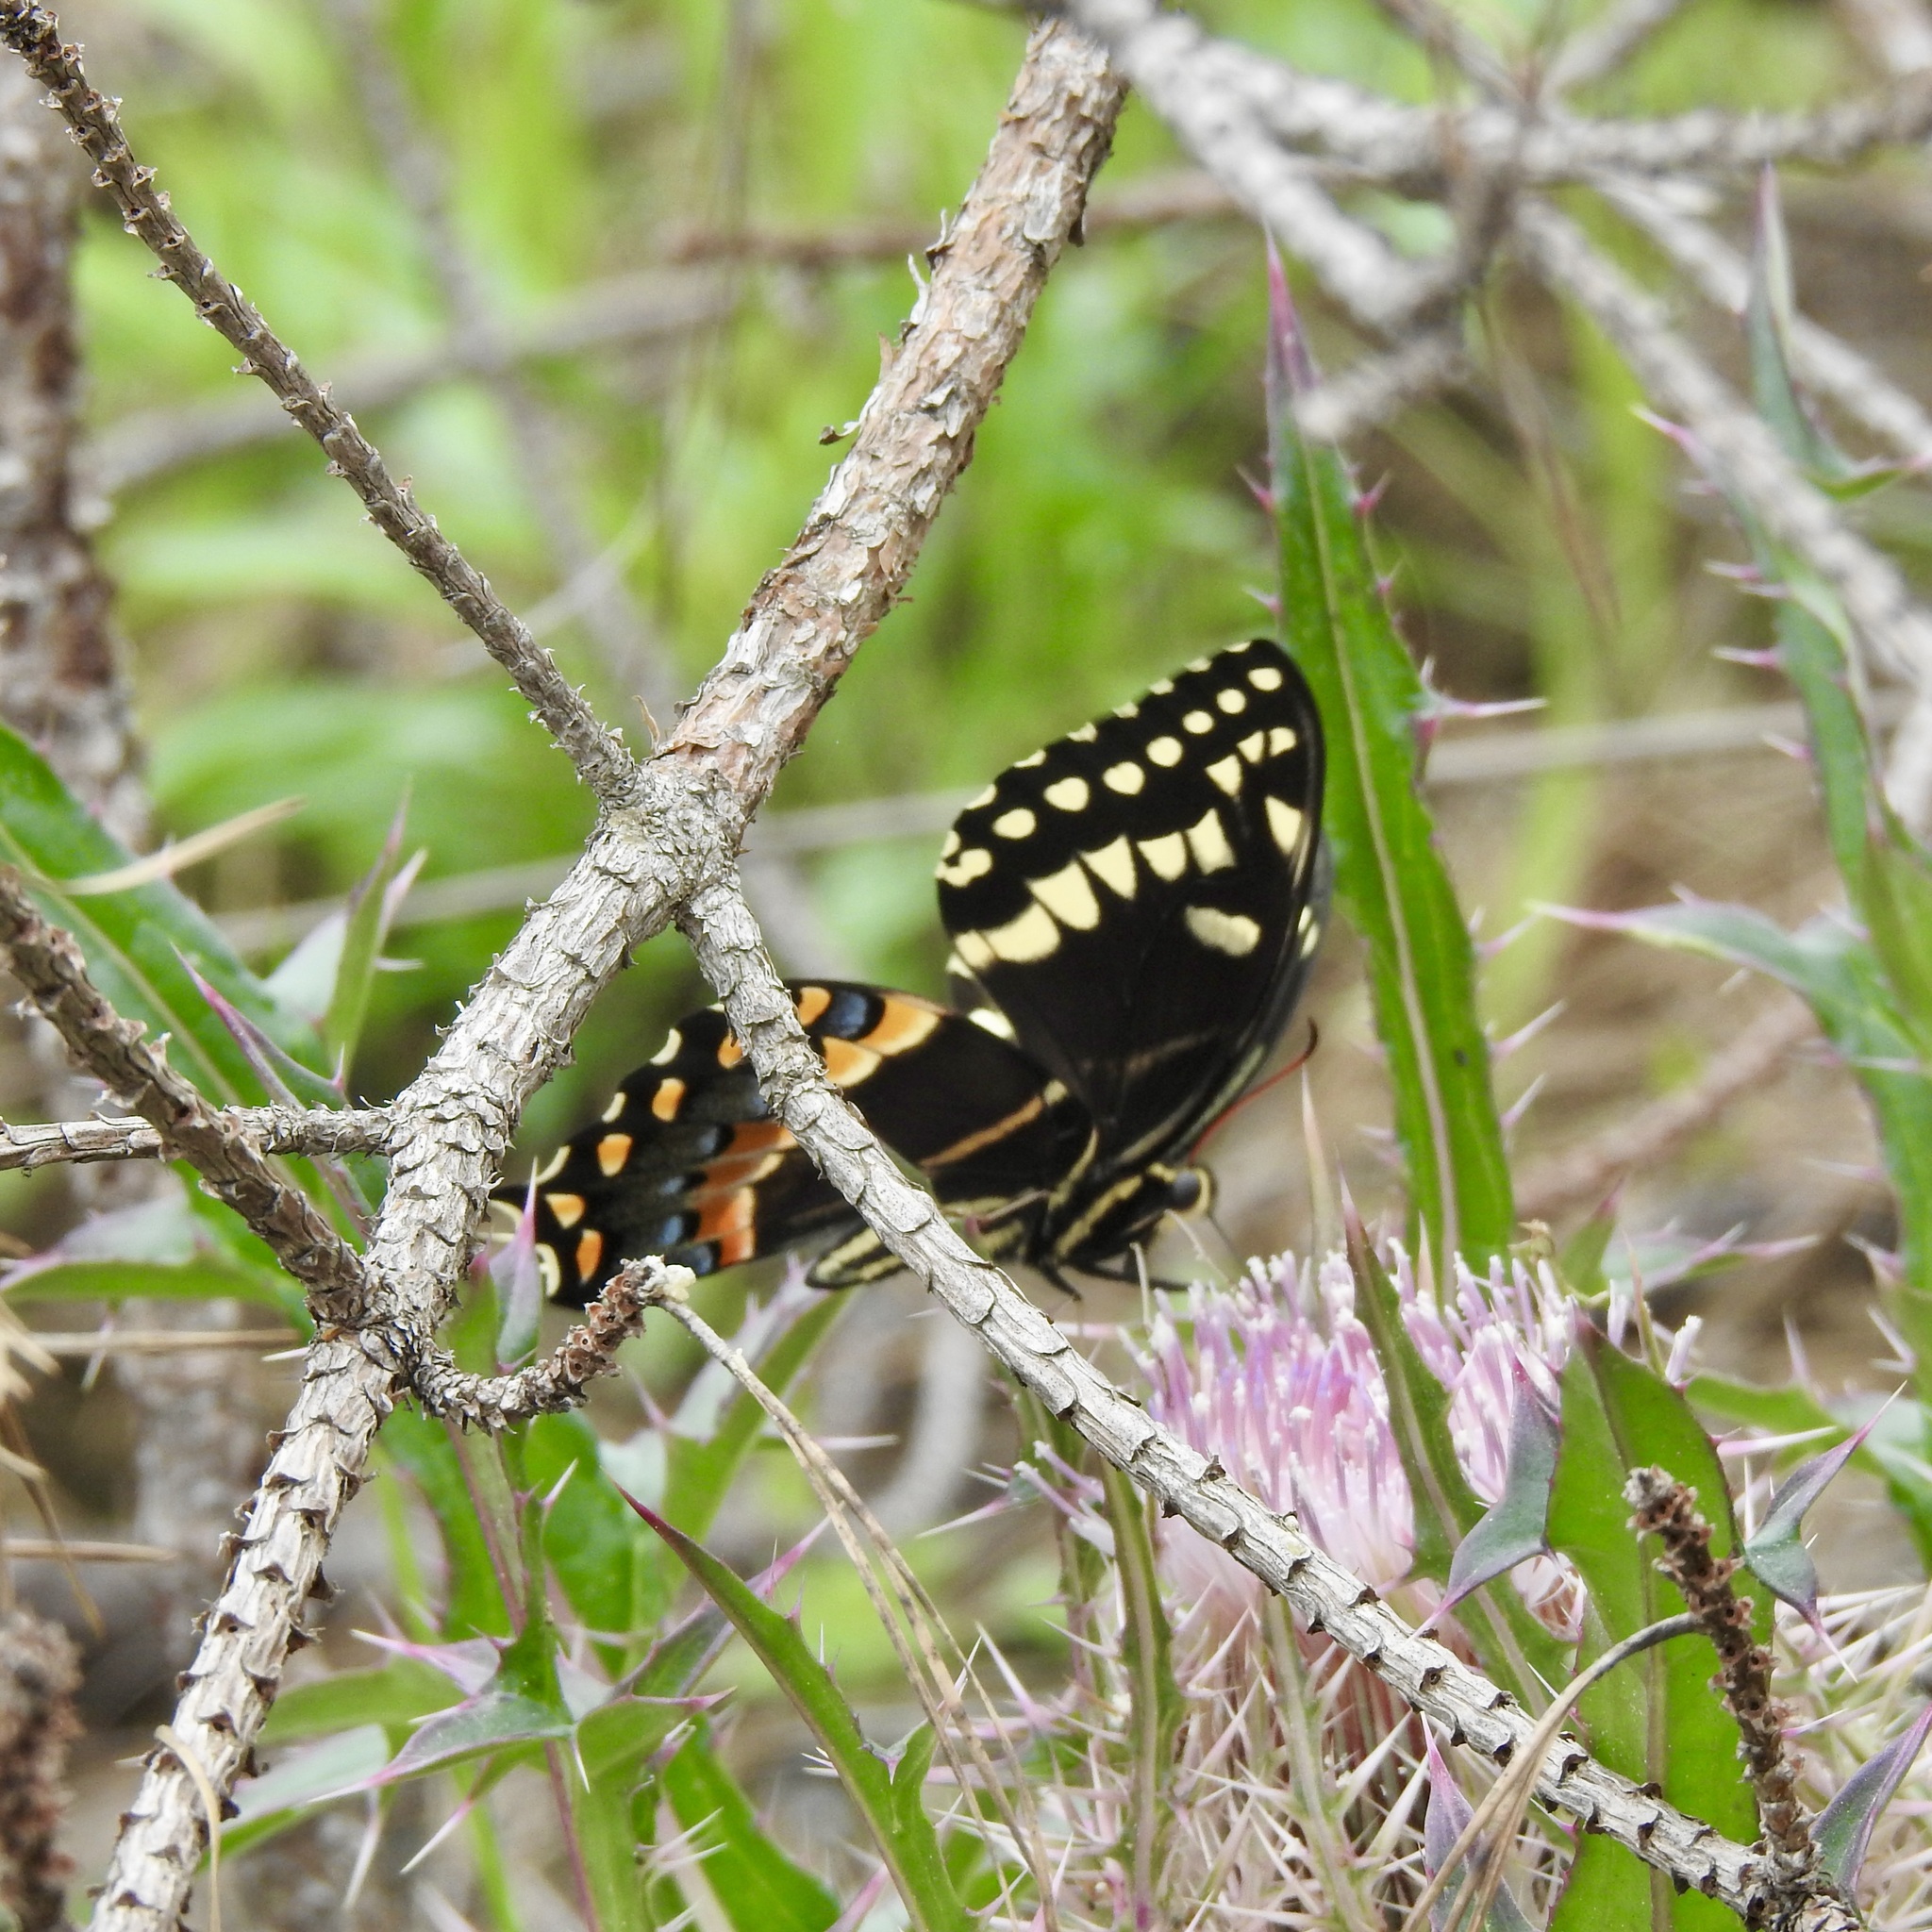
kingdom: Animalia
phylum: Arthropoda
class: Insecta
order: Lepidoptera
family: Papilionidae
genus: Papilio
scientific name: Papilio palamedes
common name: Palamedes swallowtail
